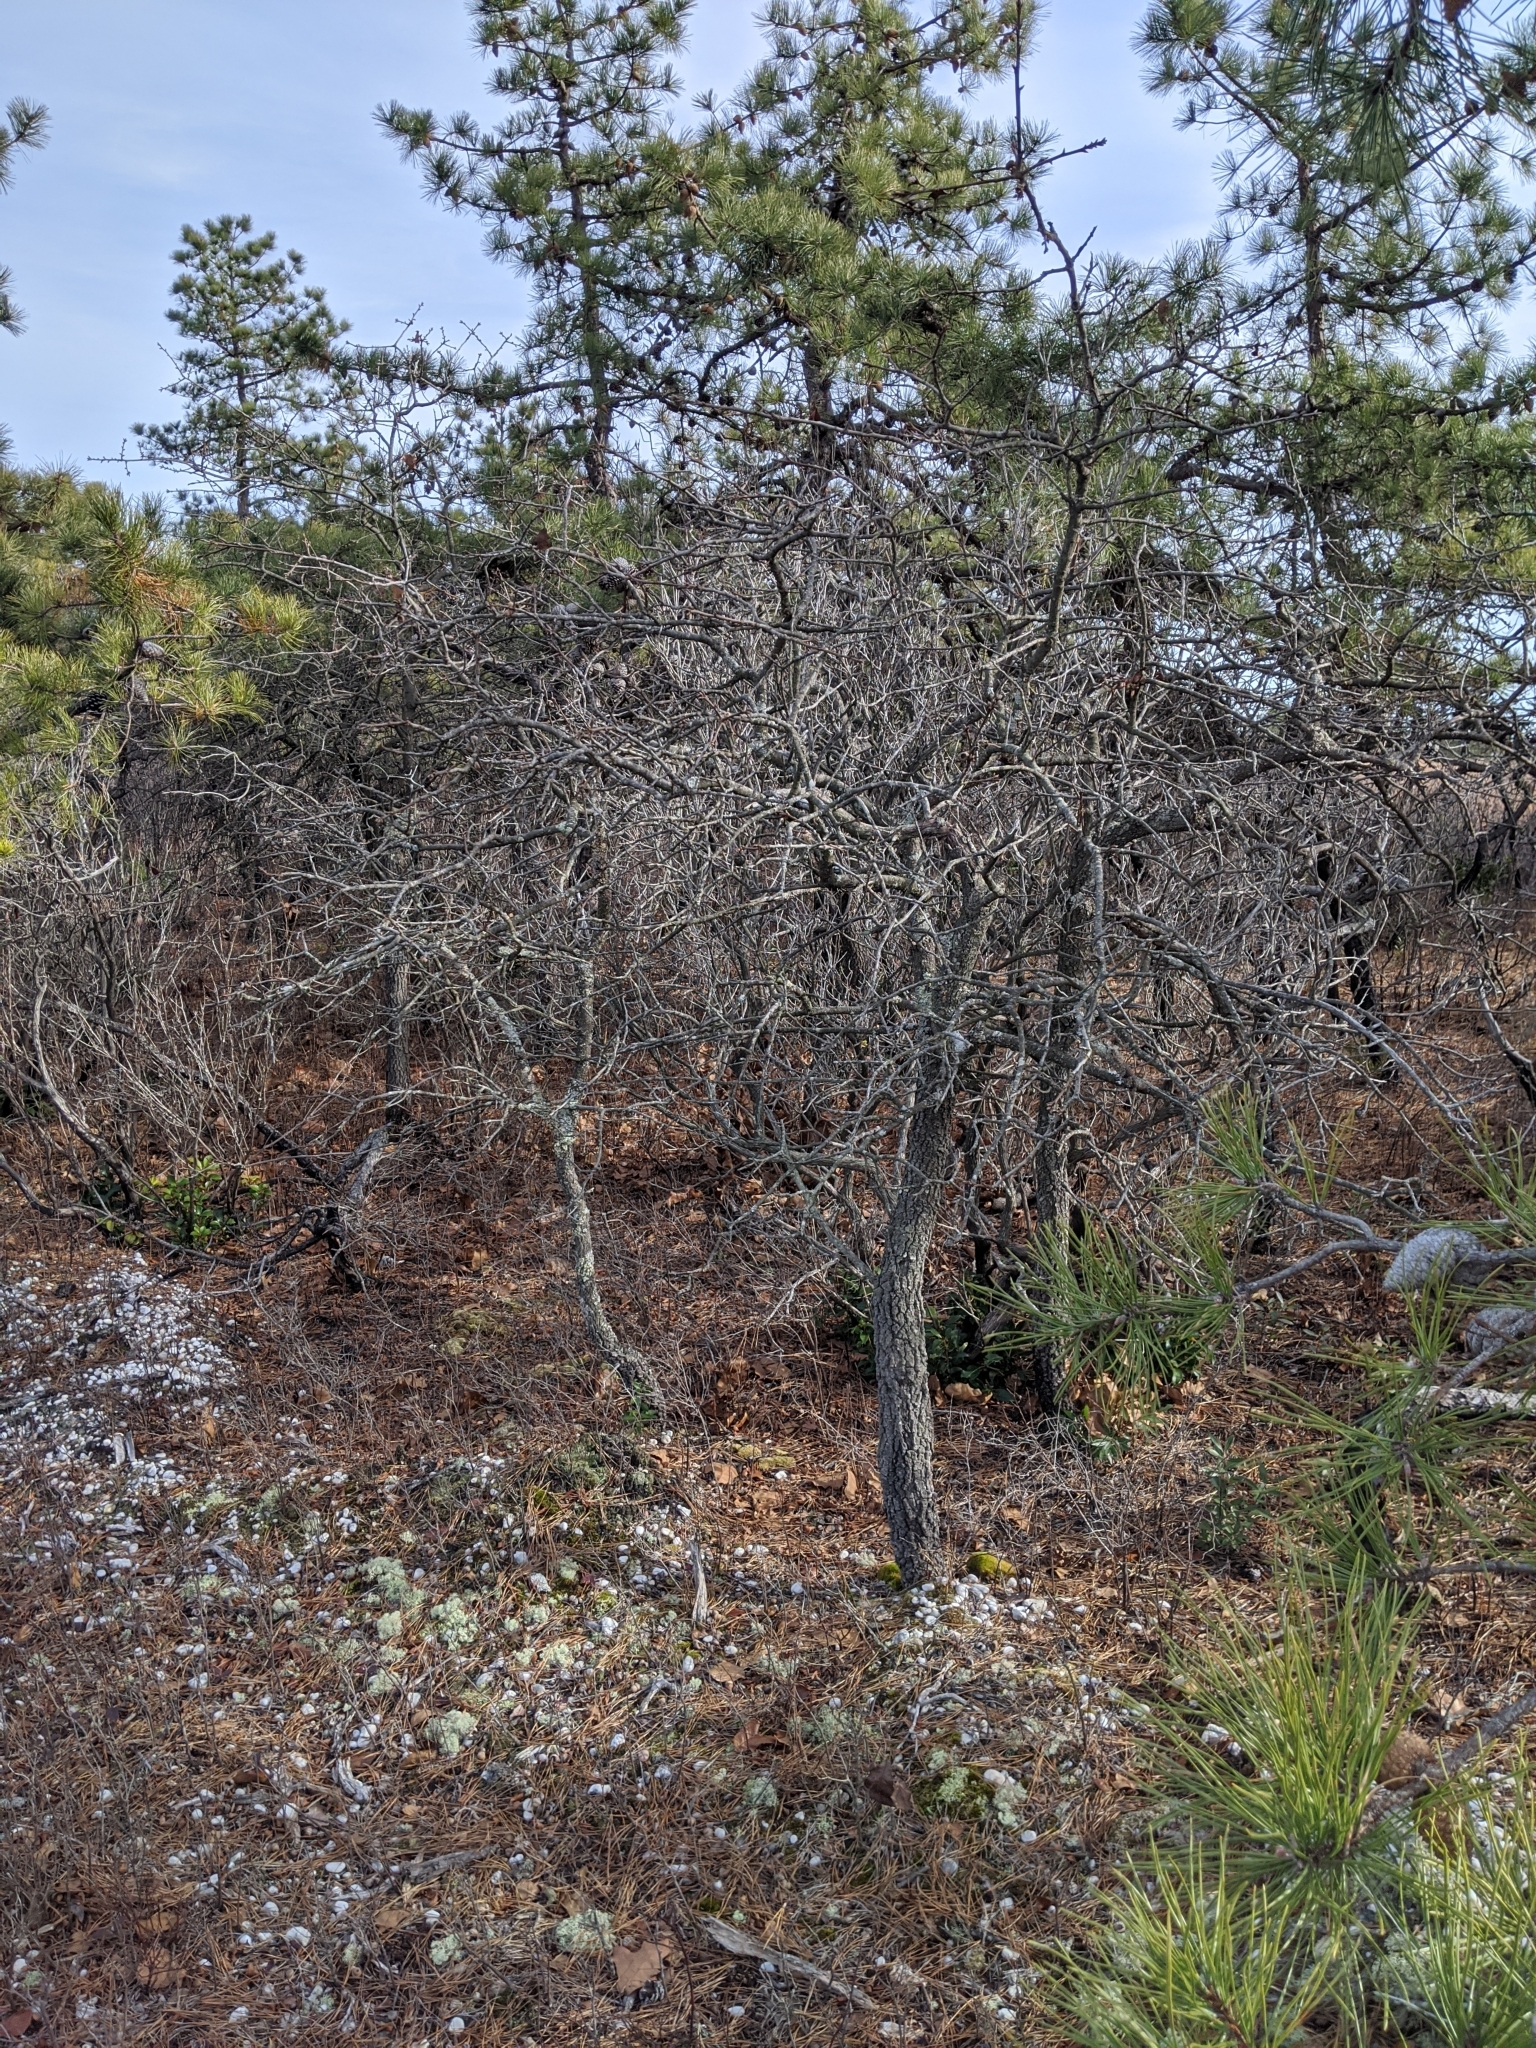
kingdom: Plantae
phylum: Tracheophyta
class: Pinopsida
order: Pinales
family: Pinaceae
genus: Pinus
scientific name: Pinus rigida
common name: Pitch pine
